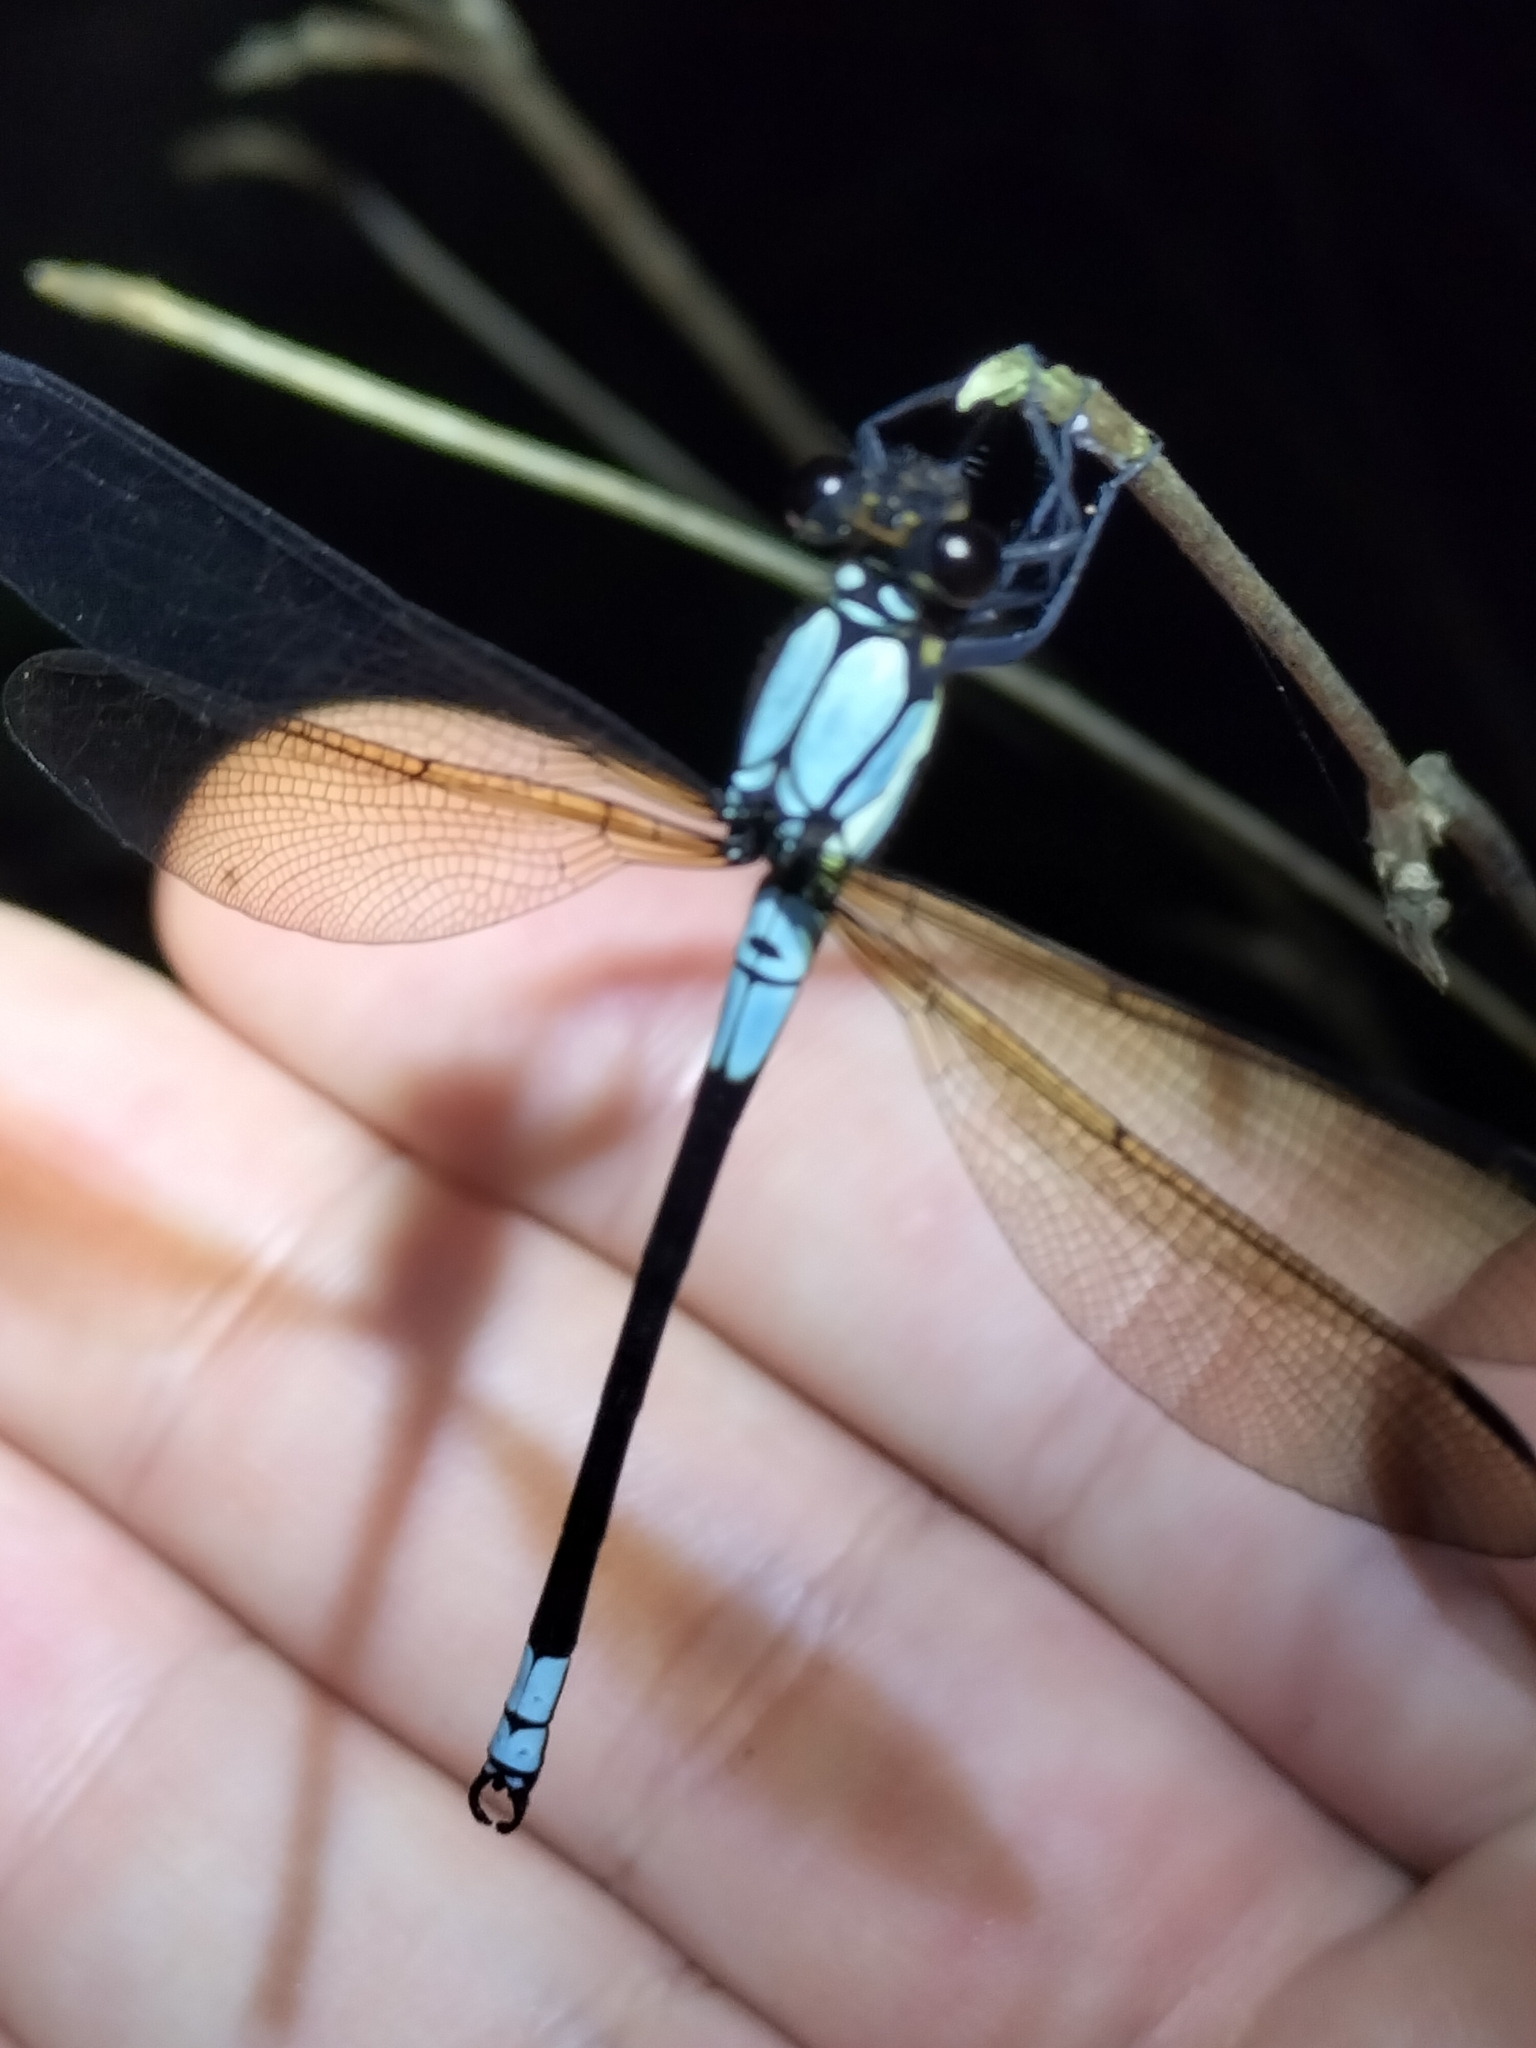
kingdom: Animalia
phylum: Arthropoda
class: Insecta
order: Odonata
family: Lestoideidae
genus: Diphlebia
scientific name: Diphlebia euphoeoides
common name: Tropical rockmaster
